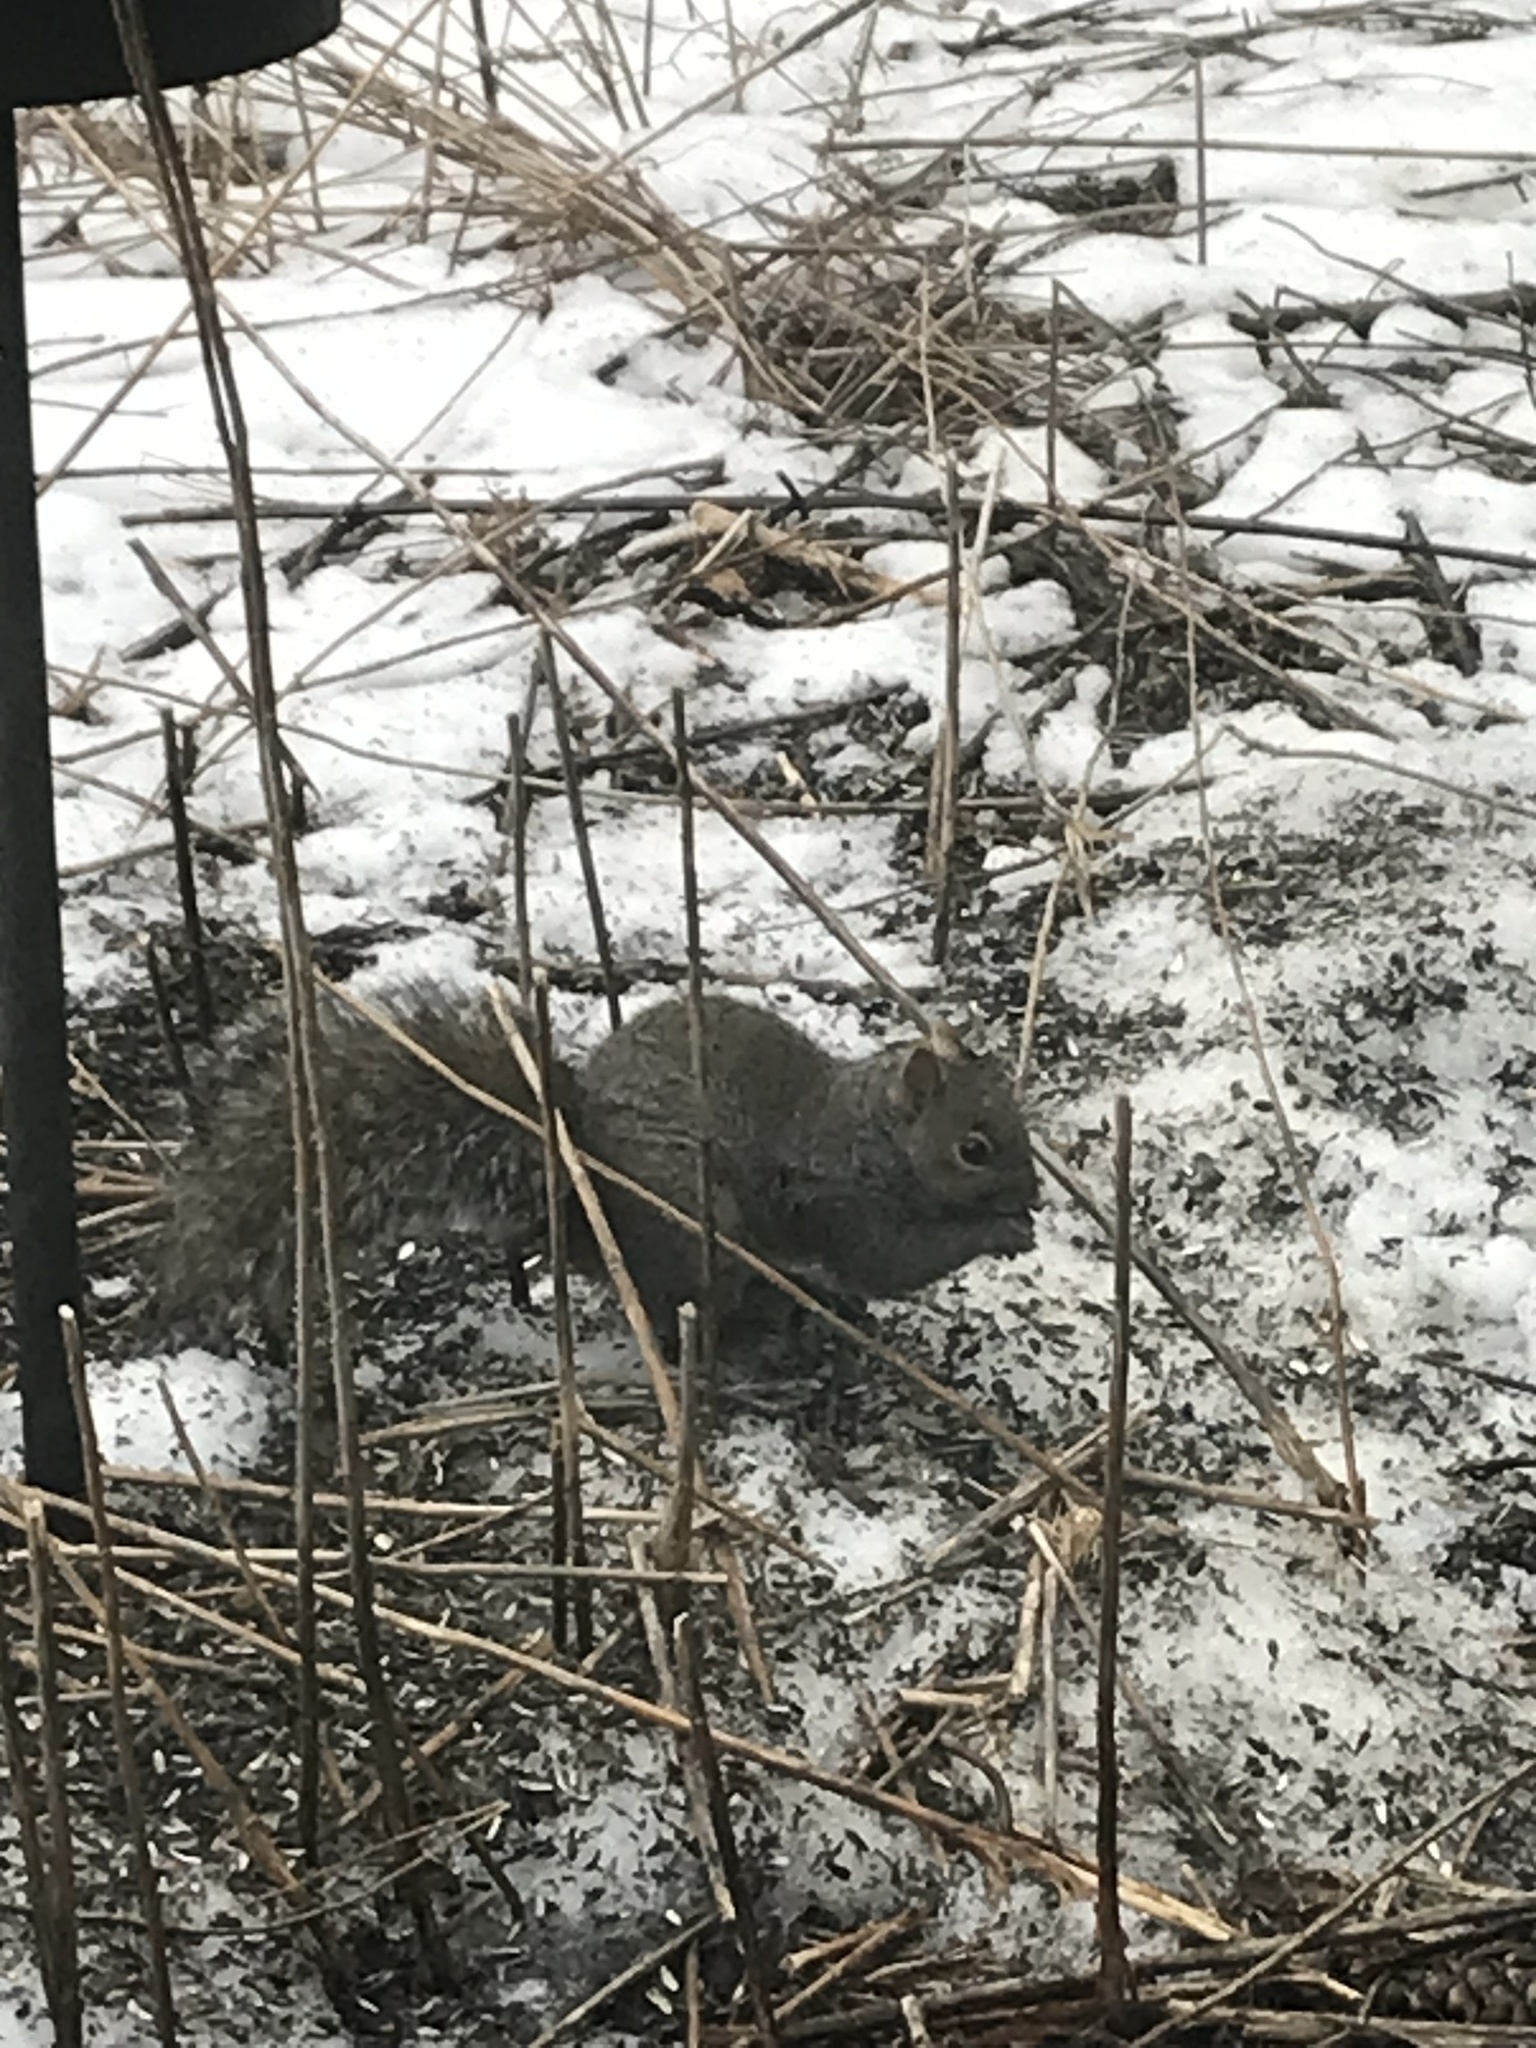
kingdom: Animalia
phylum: Chordata
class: Mammalia
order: Rodentia
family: Sciuridae
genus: Sciurus
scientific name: Sciurus carolinensis
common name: Eastern gray squirrel
